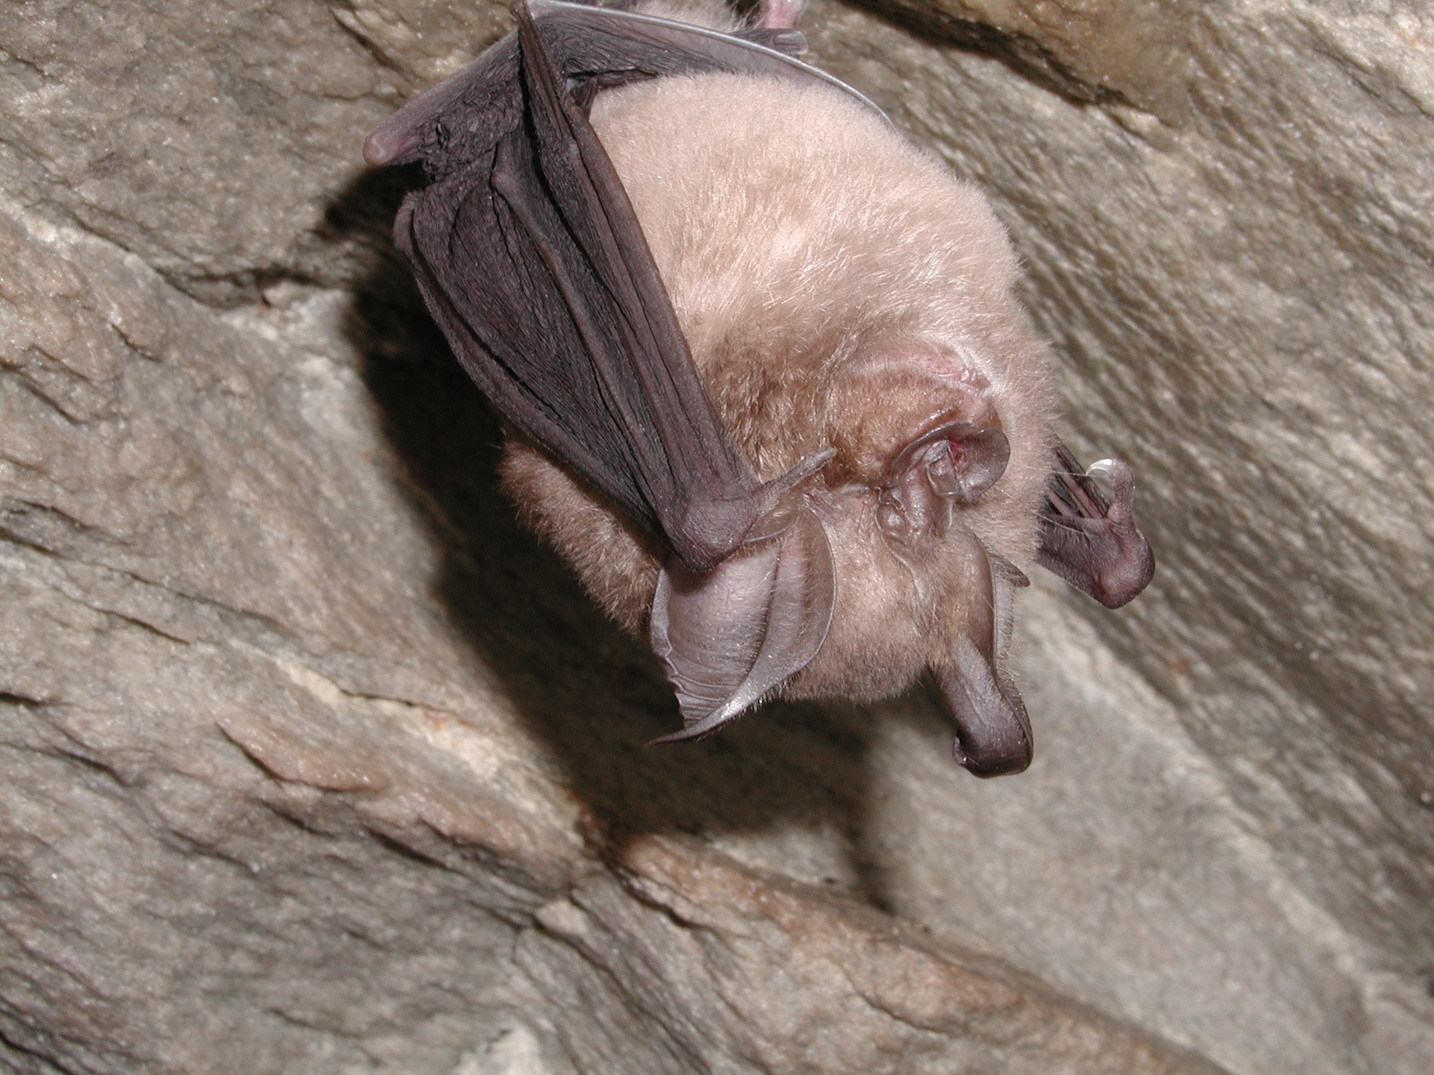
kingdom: Animalia
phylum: Chordata
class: Mammalia
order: Chiroptera
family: Rhinolophidae
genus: Rhinolophus
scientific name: Rhinolophus capensis
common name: Cape horseshoe bat
